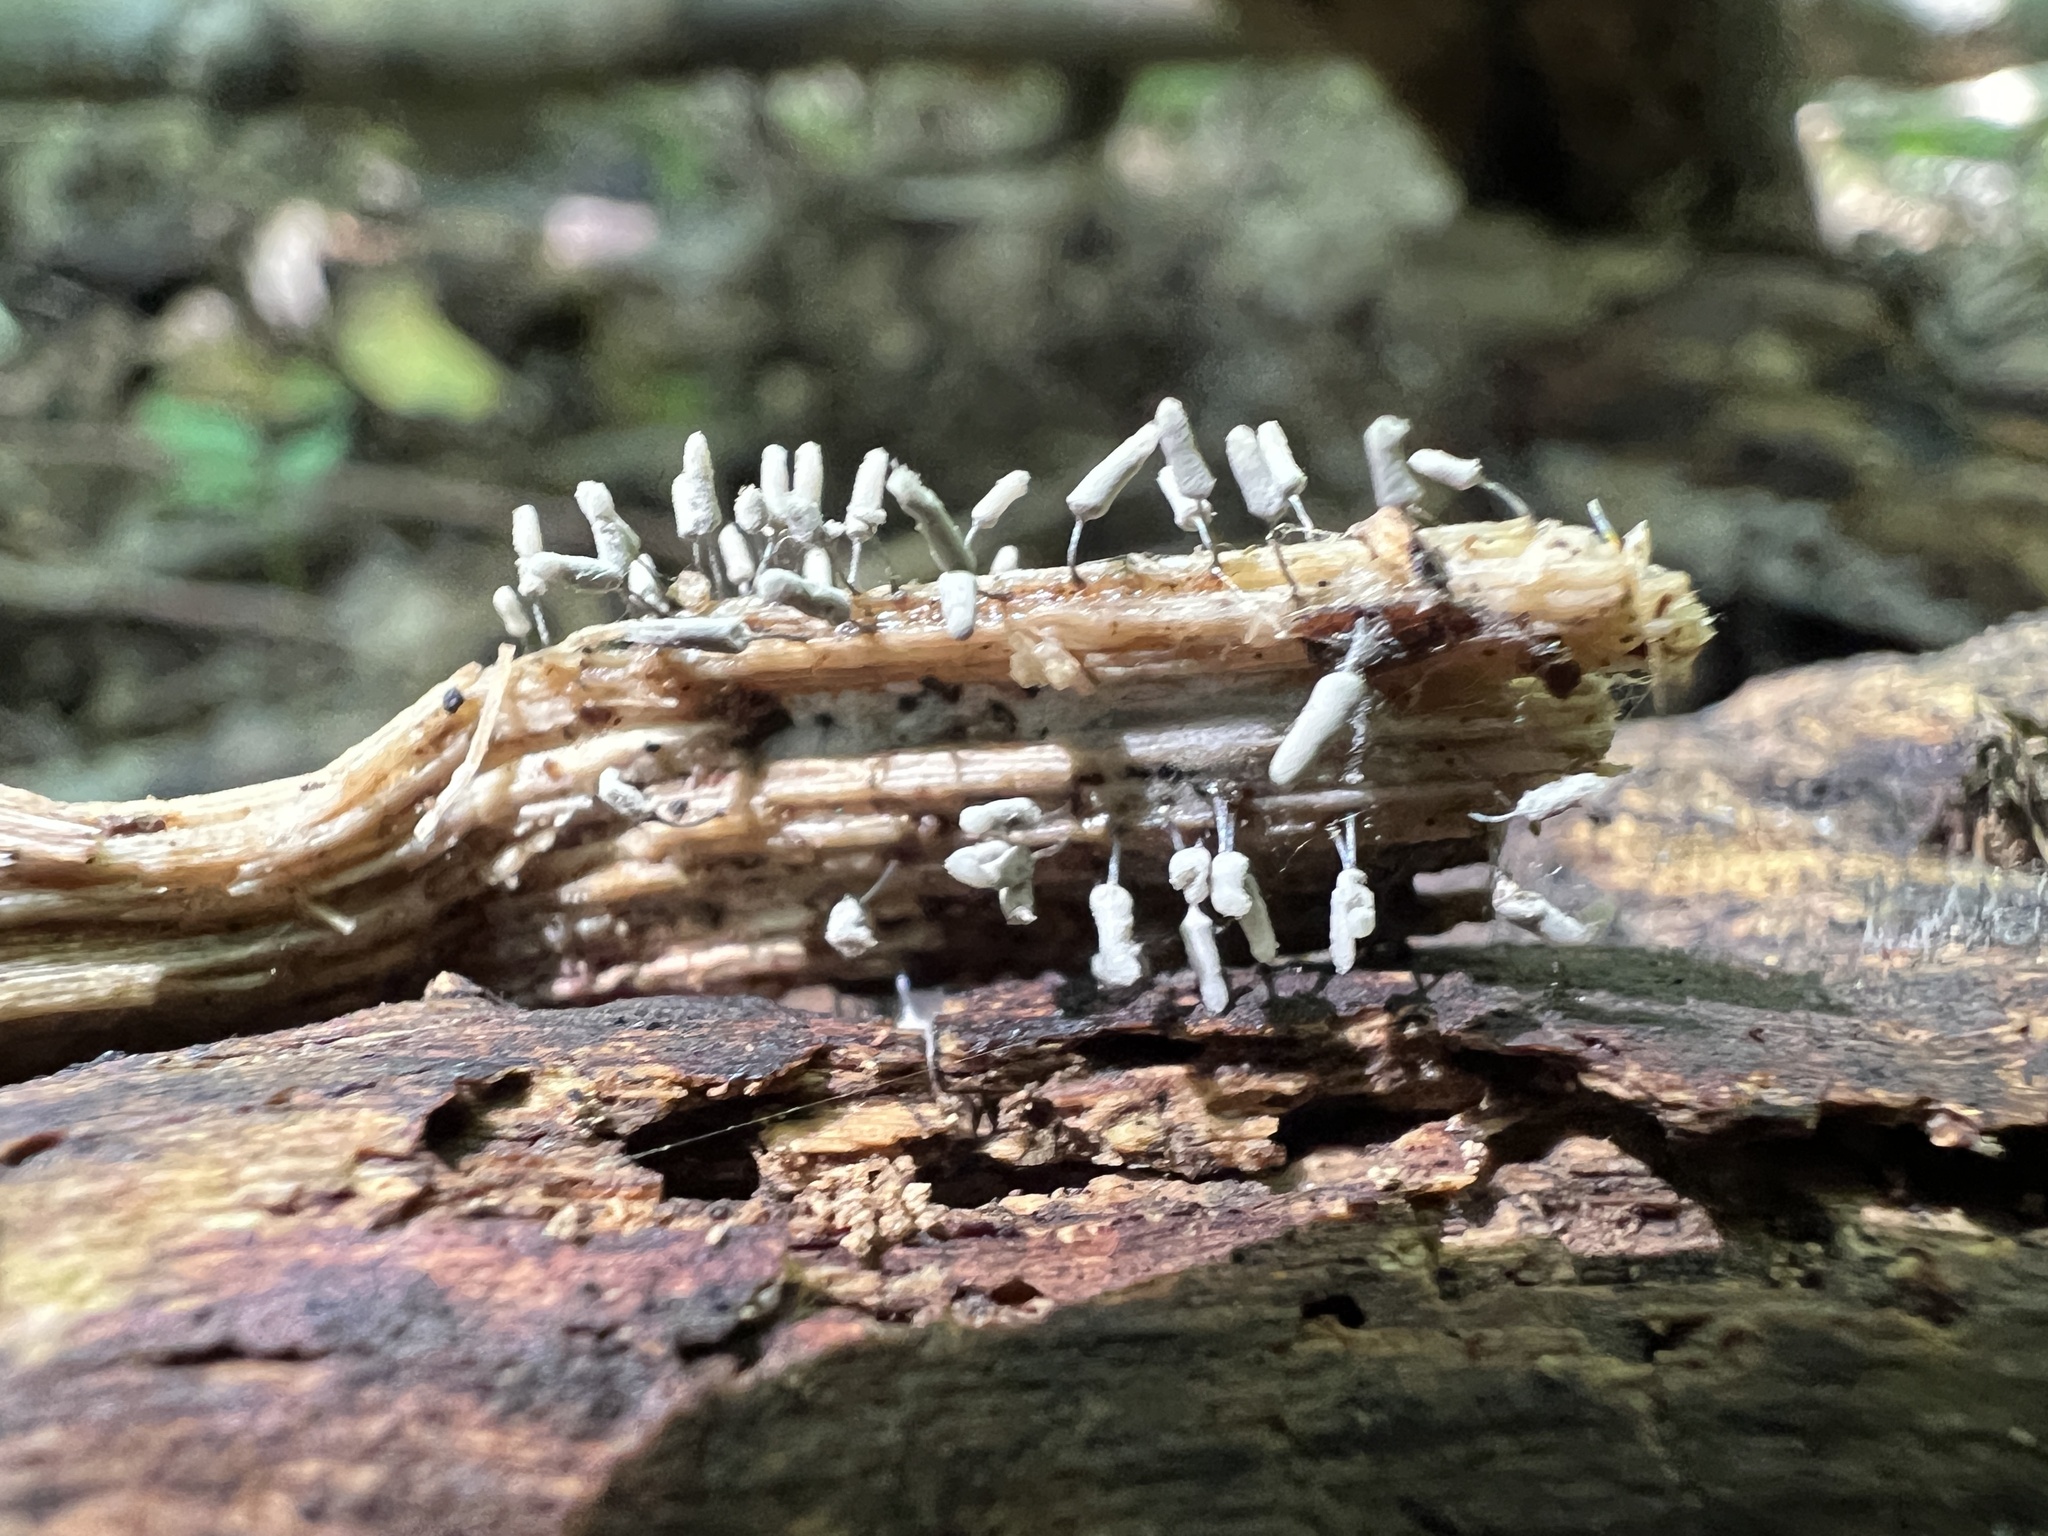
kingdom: Protozoa
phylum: Mycetozoa
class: Myxomycetes
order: Stemonitidales
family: Stemonitidaceae
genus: Stemonitopsis
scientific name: Stemonitopsis typhina
